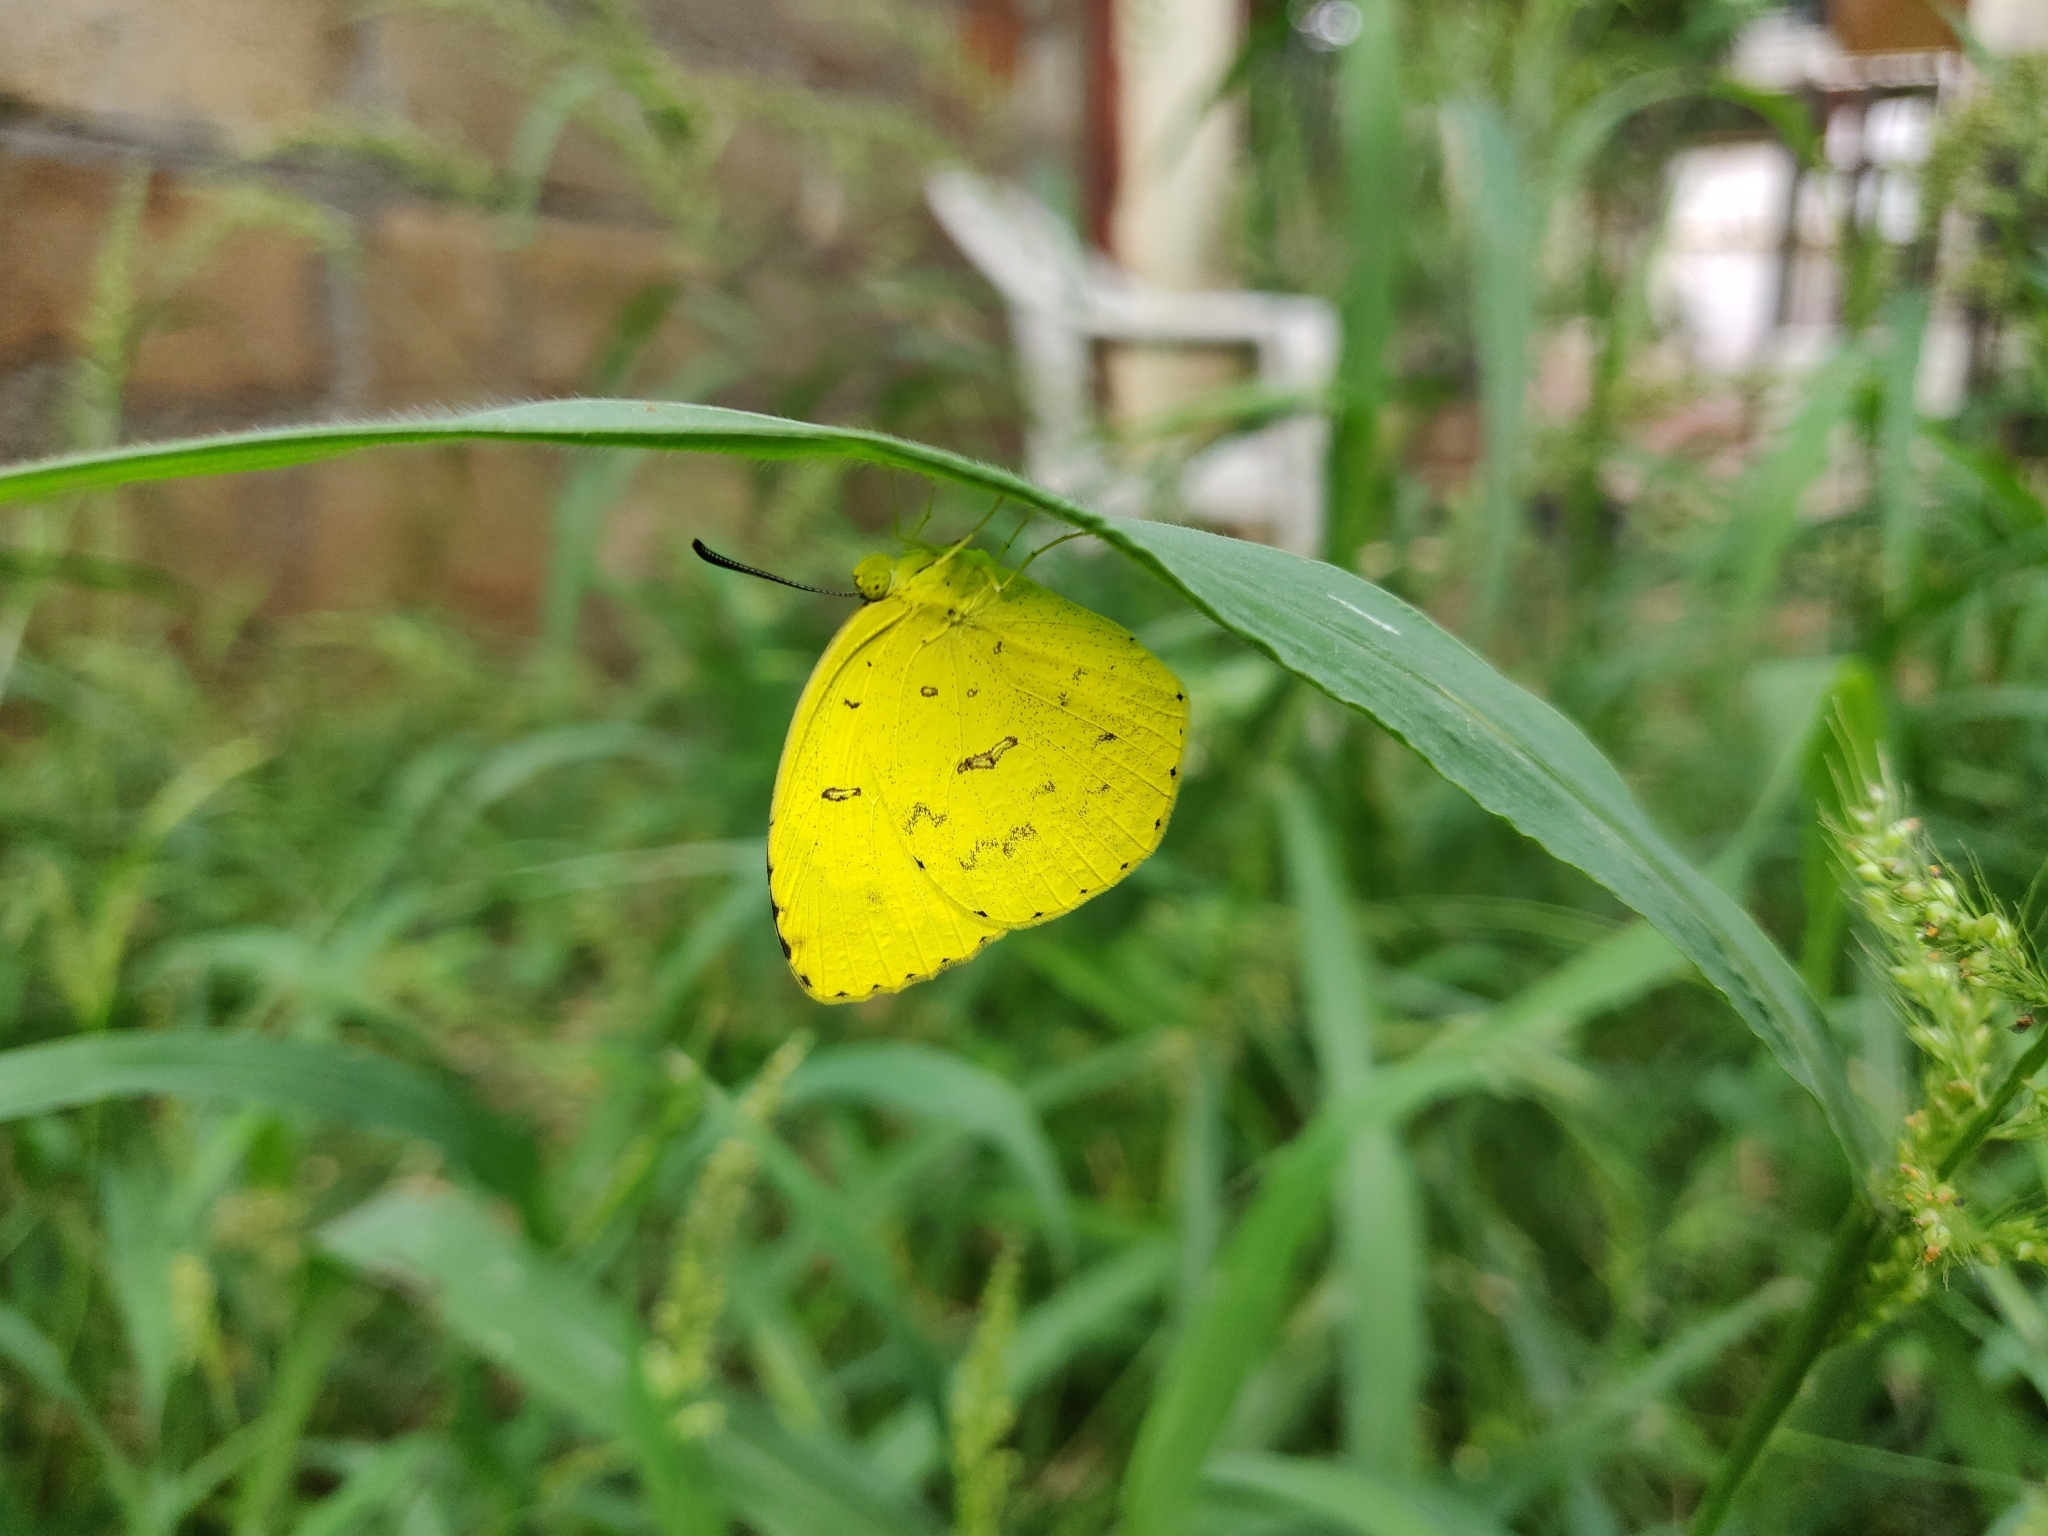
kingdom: Animalia
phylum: Arthropoda
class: Insecta
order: Lepidoptera
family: Pieridae
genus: Eurema
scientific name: Eurema hecabe
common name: Pale grass yellow
